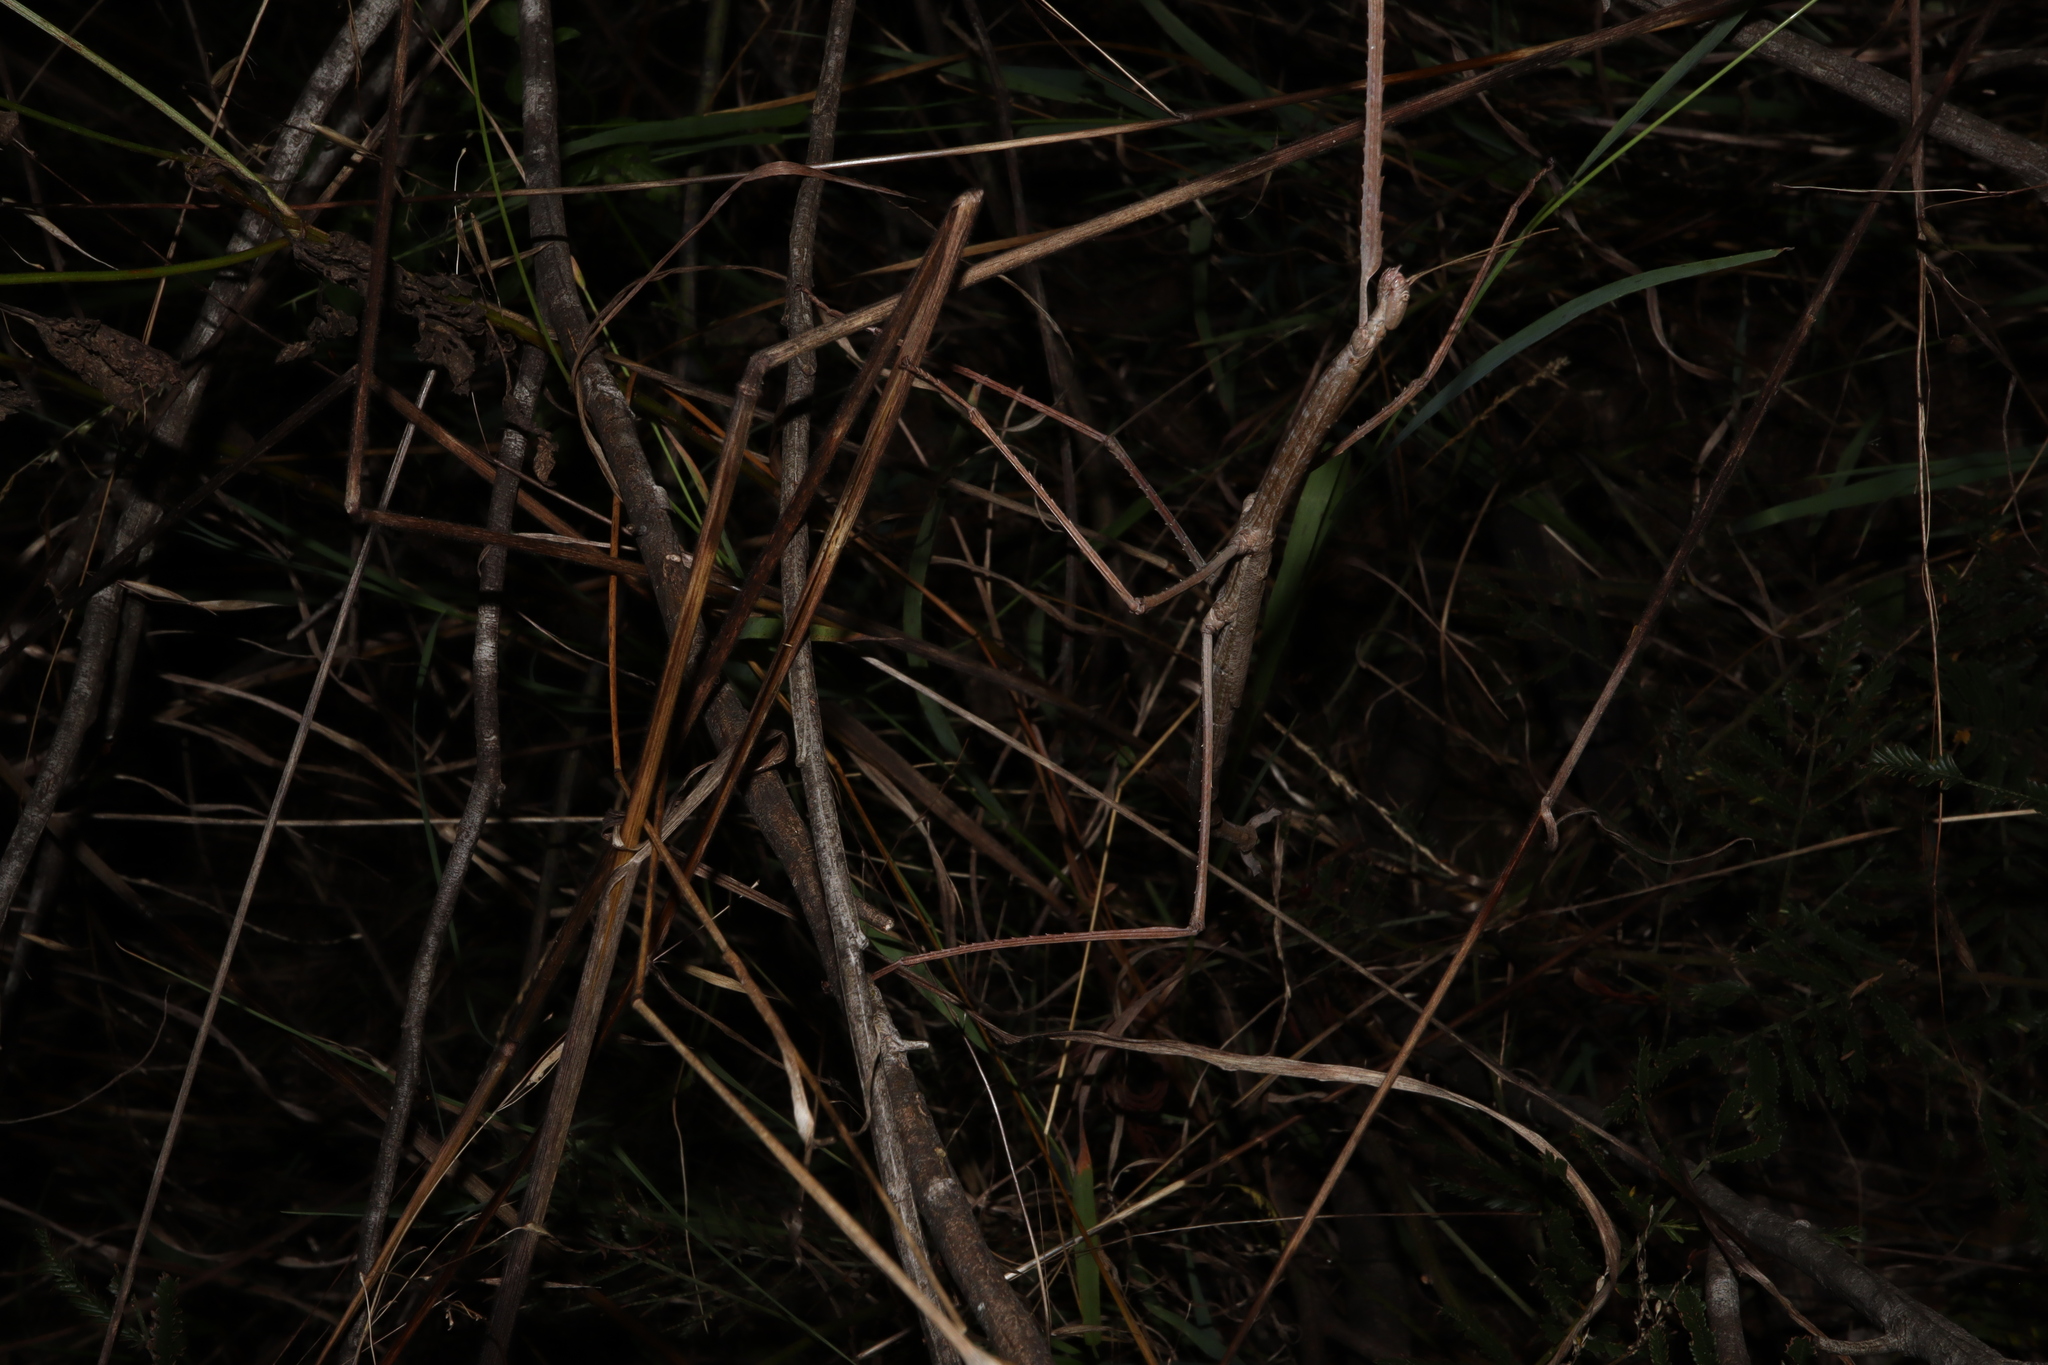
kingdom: Animalia
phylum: Arthropoda
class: Insecta
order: Phasmida
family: Phasmatidae
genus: Ctenomorpha
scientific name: Ctenomorpha marginipennis
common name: Margined-winged stick-insect
